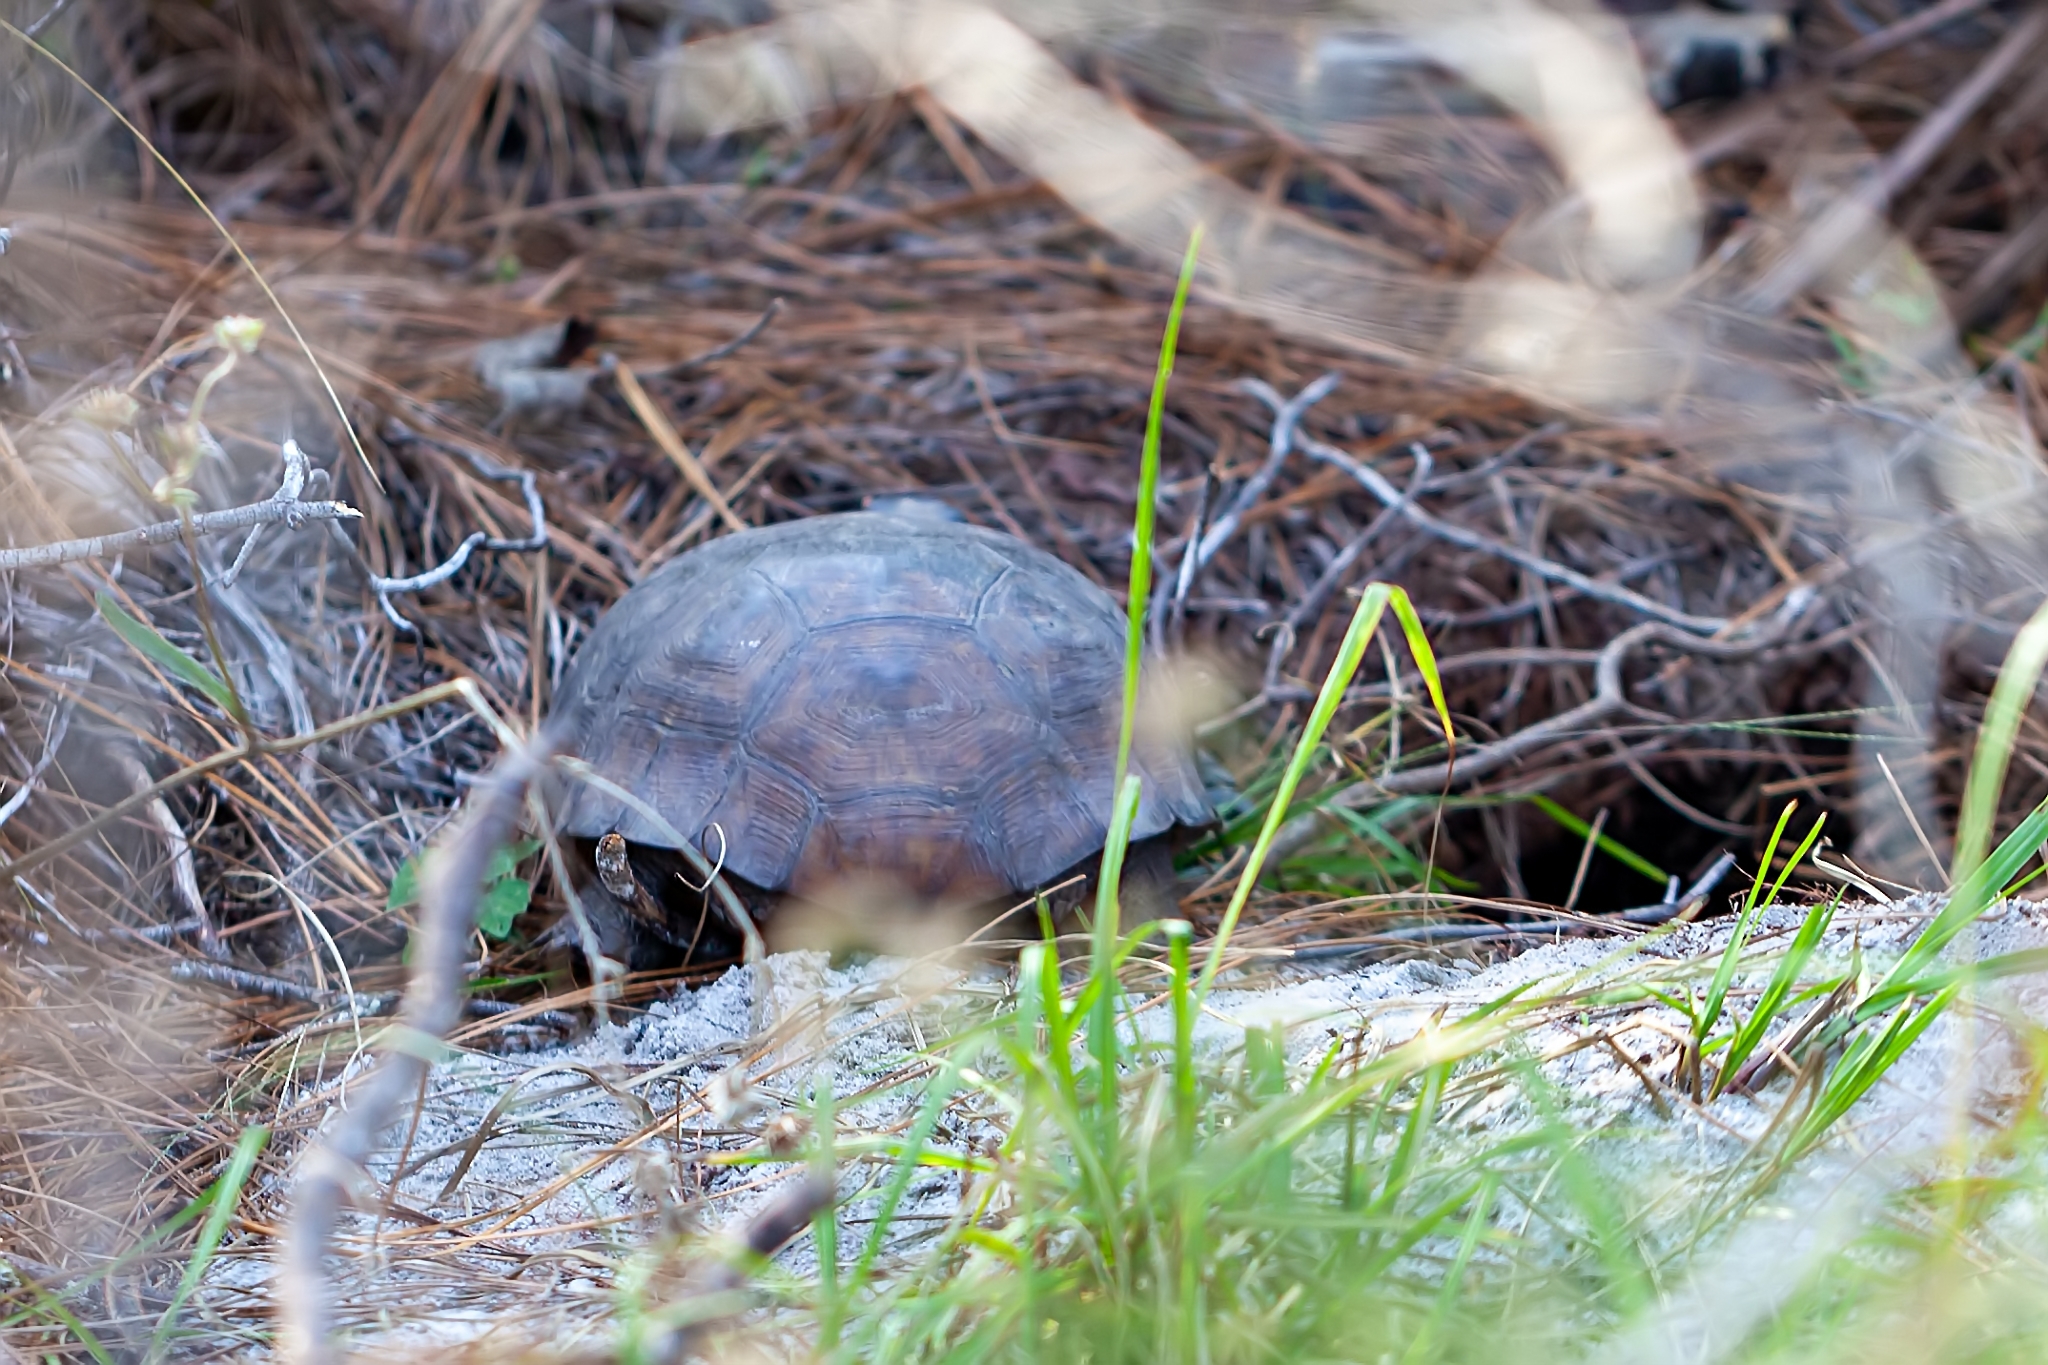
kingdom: Animalia
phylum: Chordata
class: Testudines
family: Testudinidae
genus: Gopherus
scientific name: Gopherus polyphemus
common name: Florida gopher tortoise
